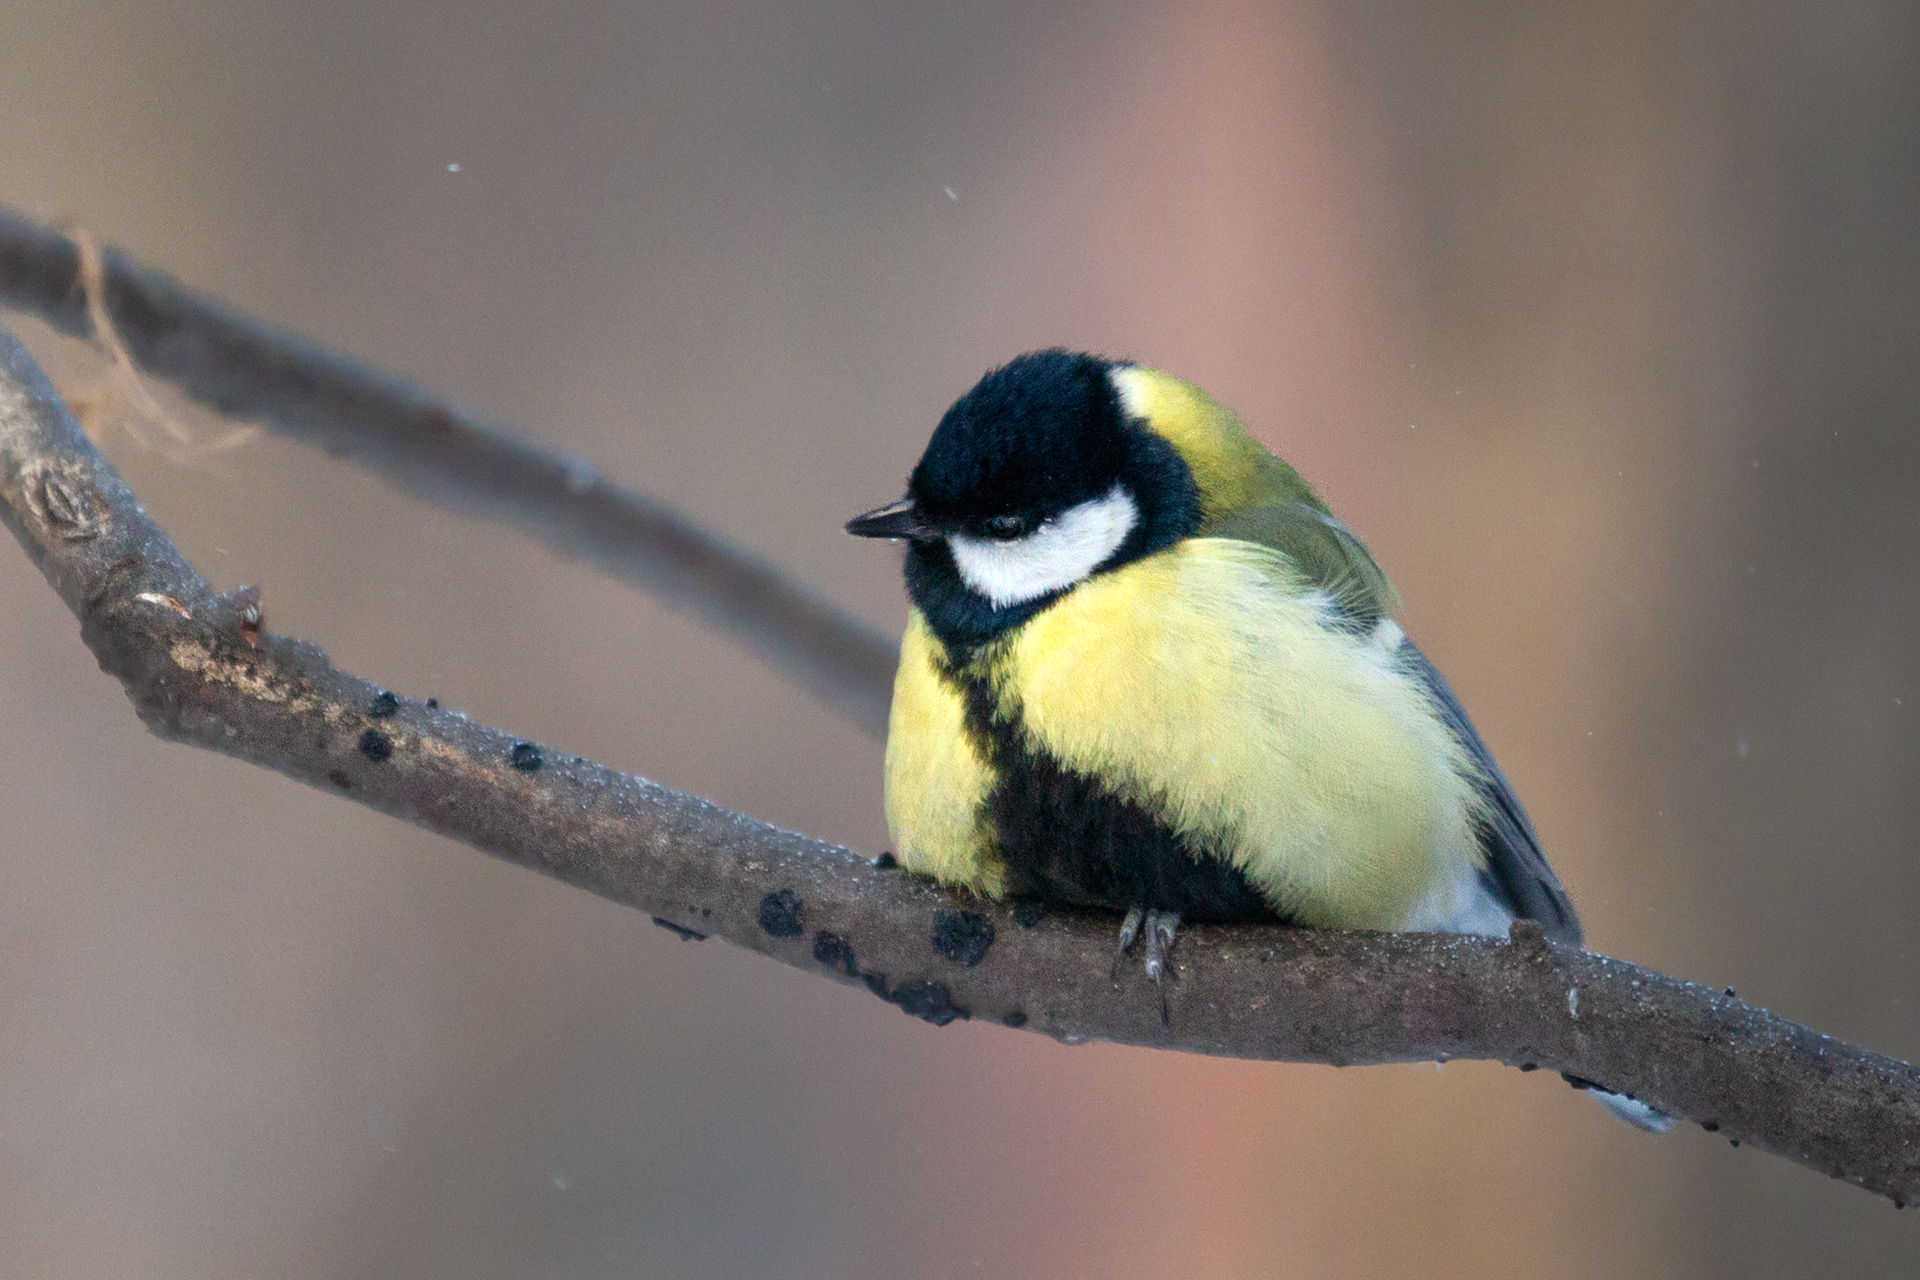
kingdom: Animalia
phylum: Chordata
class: Aves
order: Passeriformes
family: Paridae
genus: Parus
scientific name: Parus major
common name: Great tit
